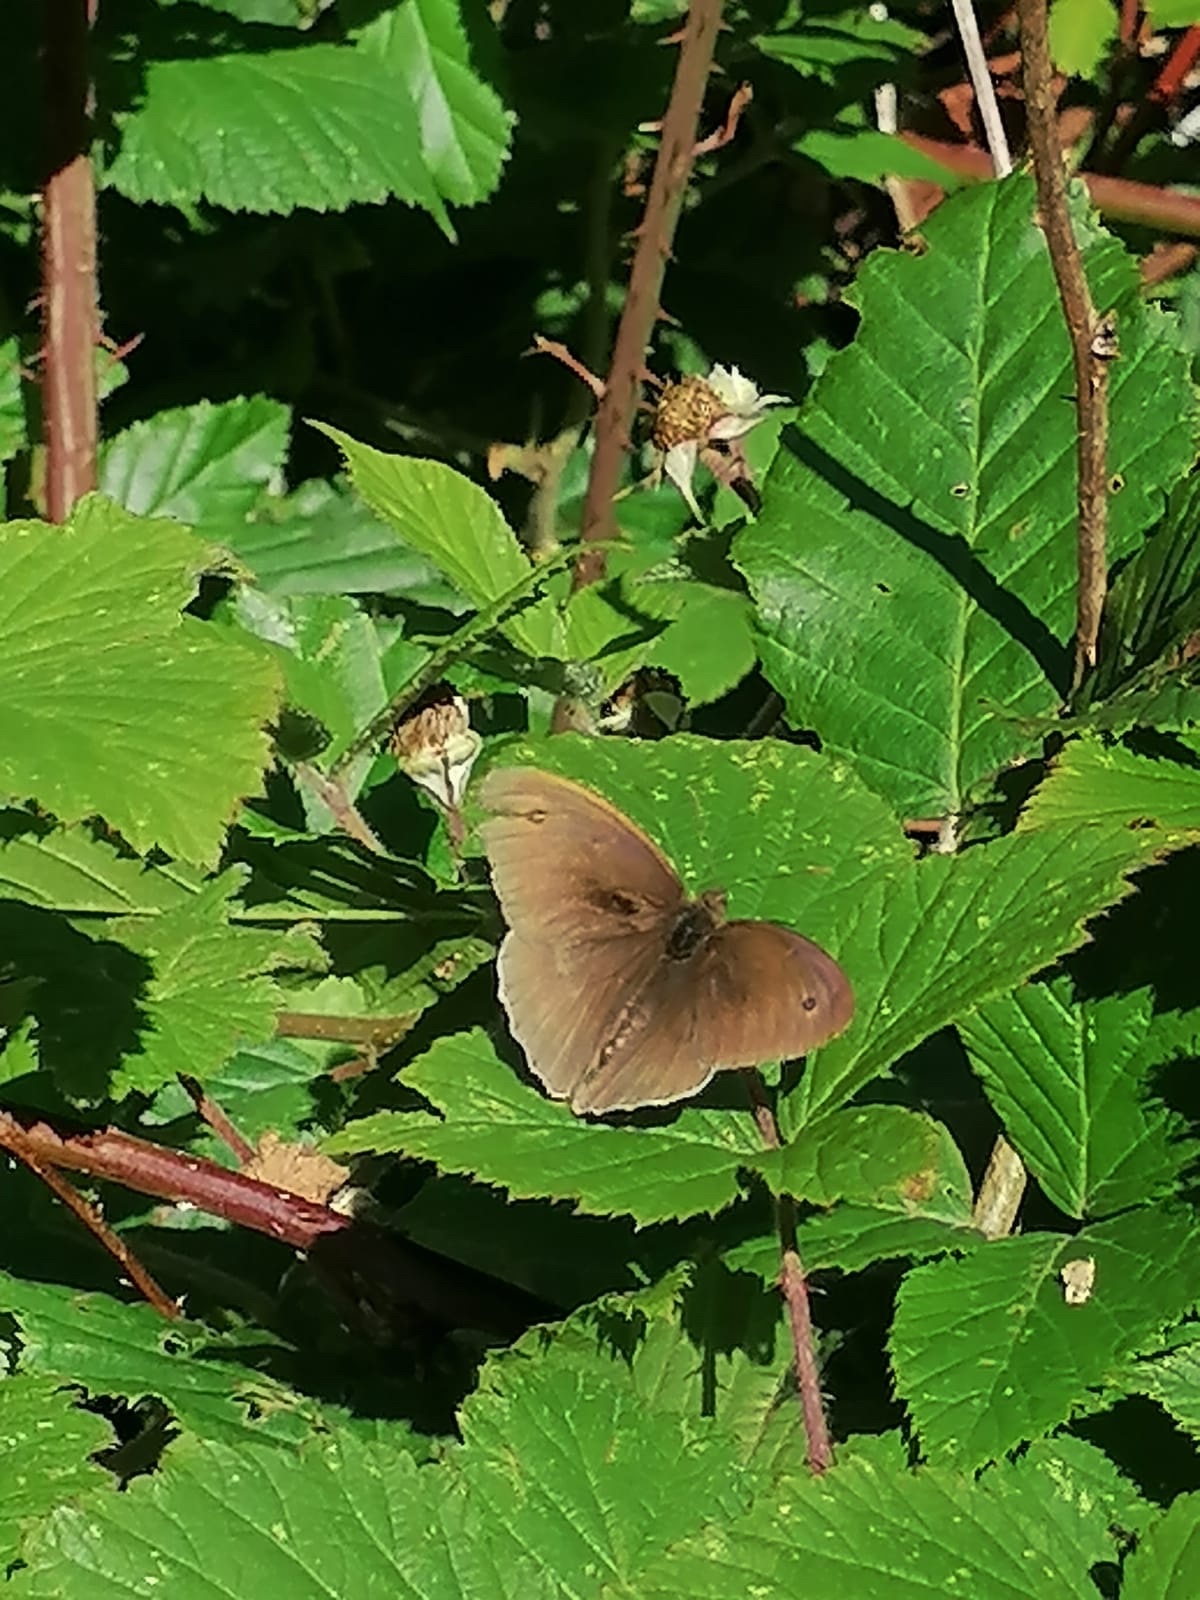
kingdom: Animalia
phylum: Arthropoda
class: Insecta
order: Lepidoptera
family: Nymphalidae
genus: Maniola
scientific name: Maniola jurtina
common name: Meadow brown
